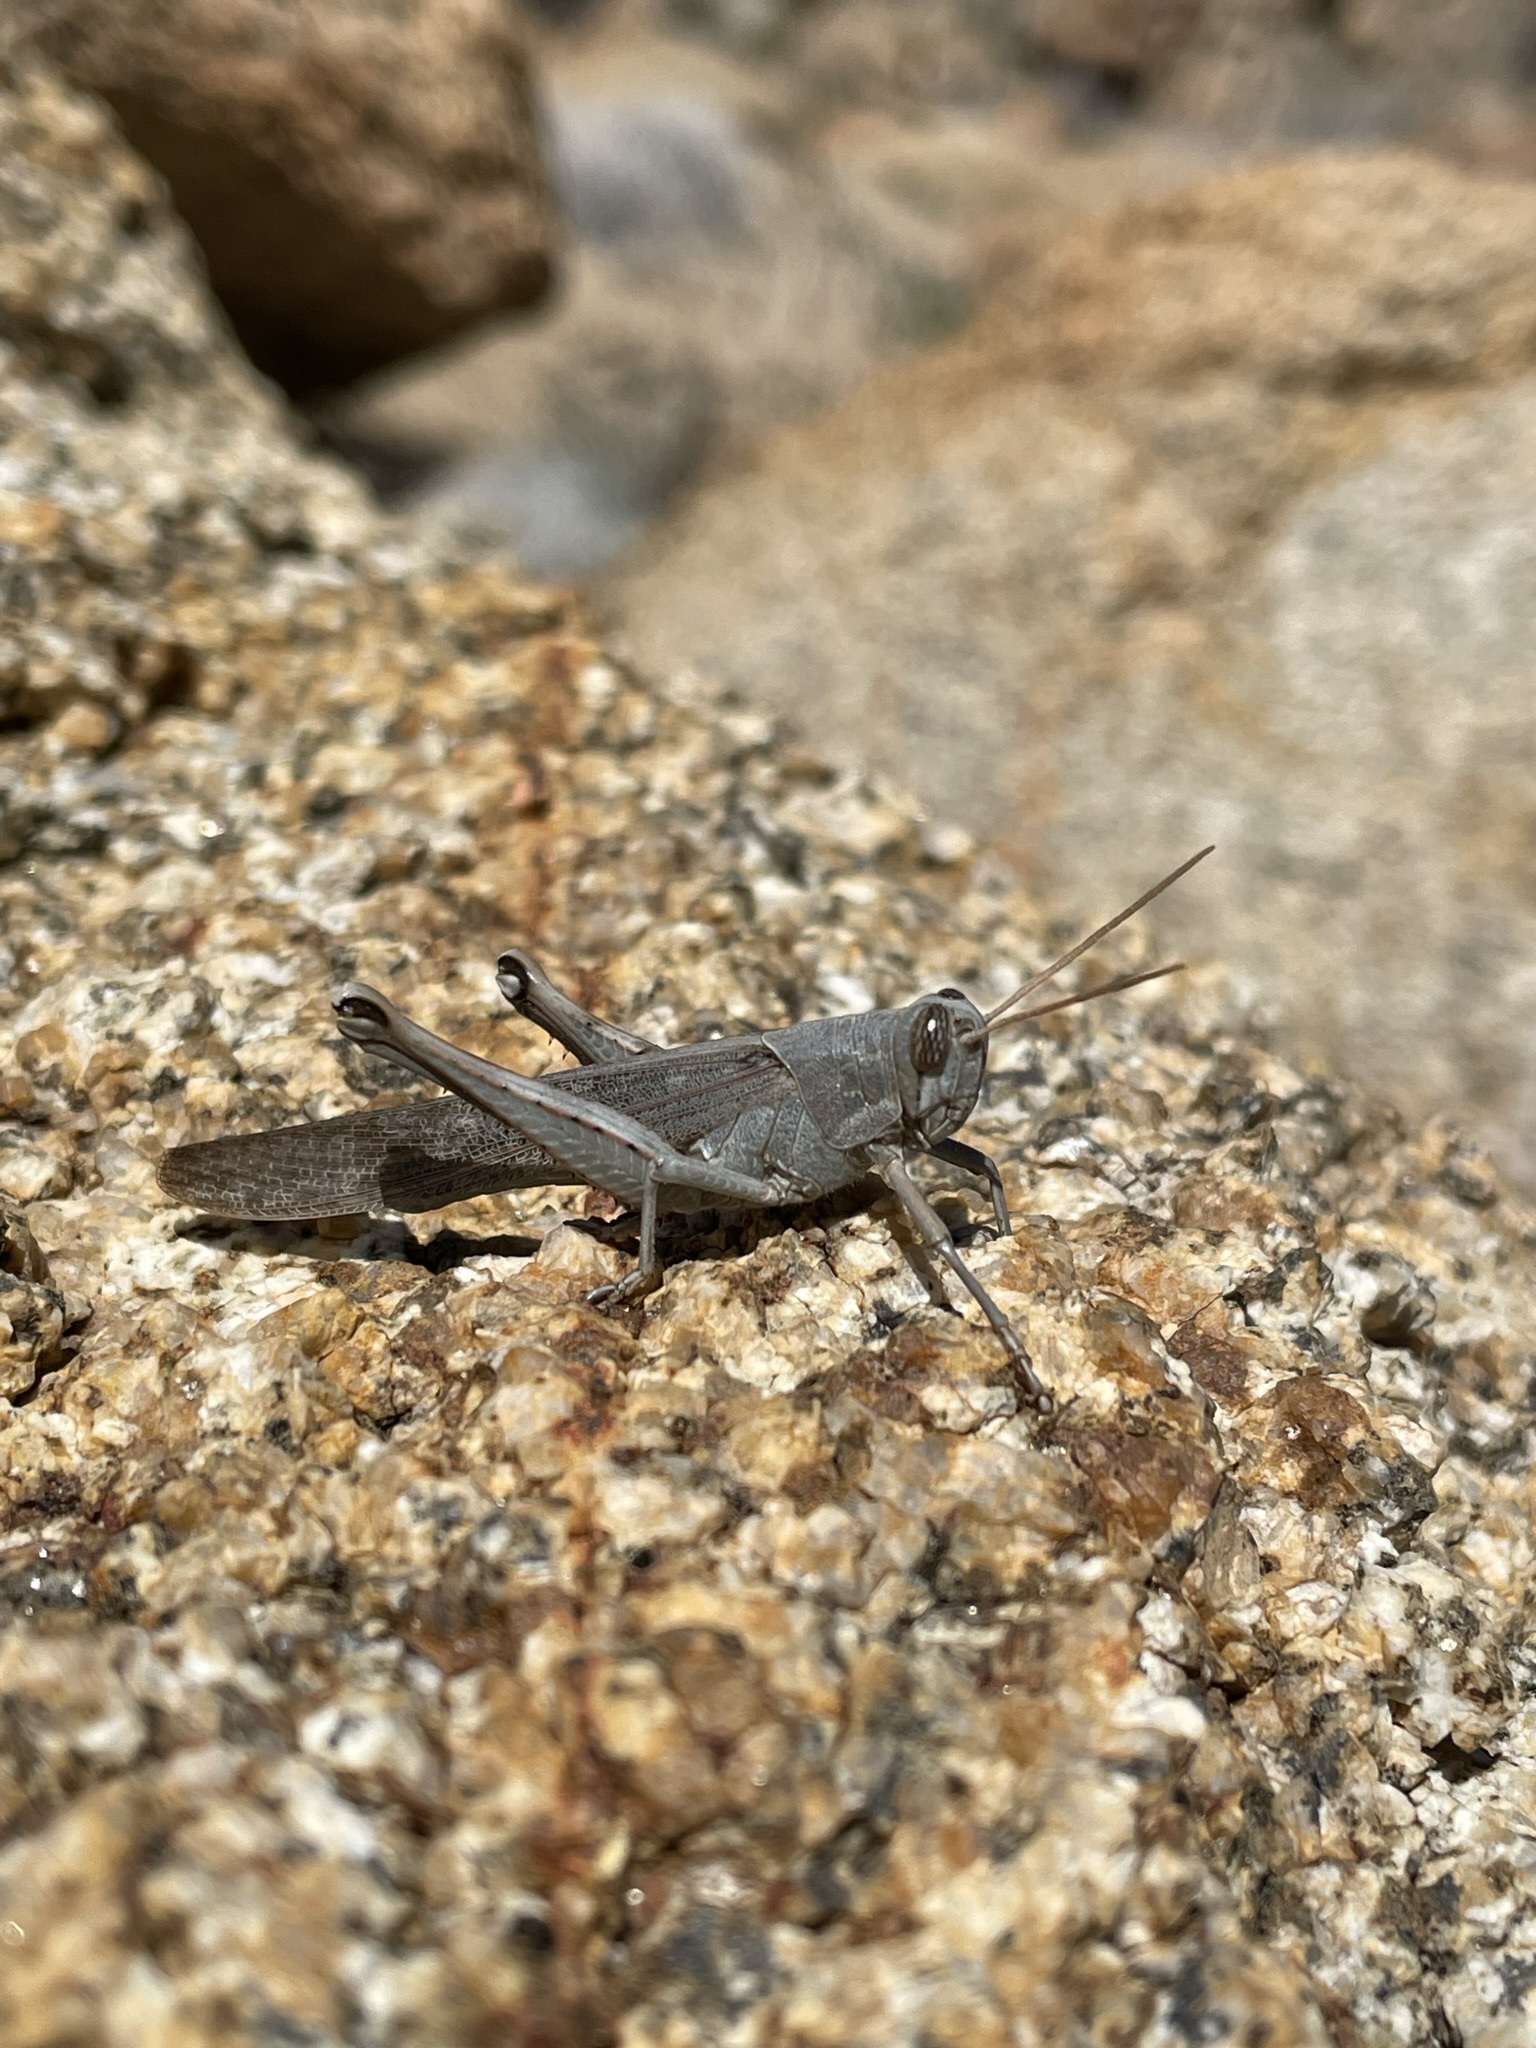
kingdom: Animalia
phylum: Arthropoda
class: Insecta
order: Orthoptera
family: Acrididae
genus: Schistocerca
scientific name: Schistocerca nitens
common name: Vagrant grasshopper
